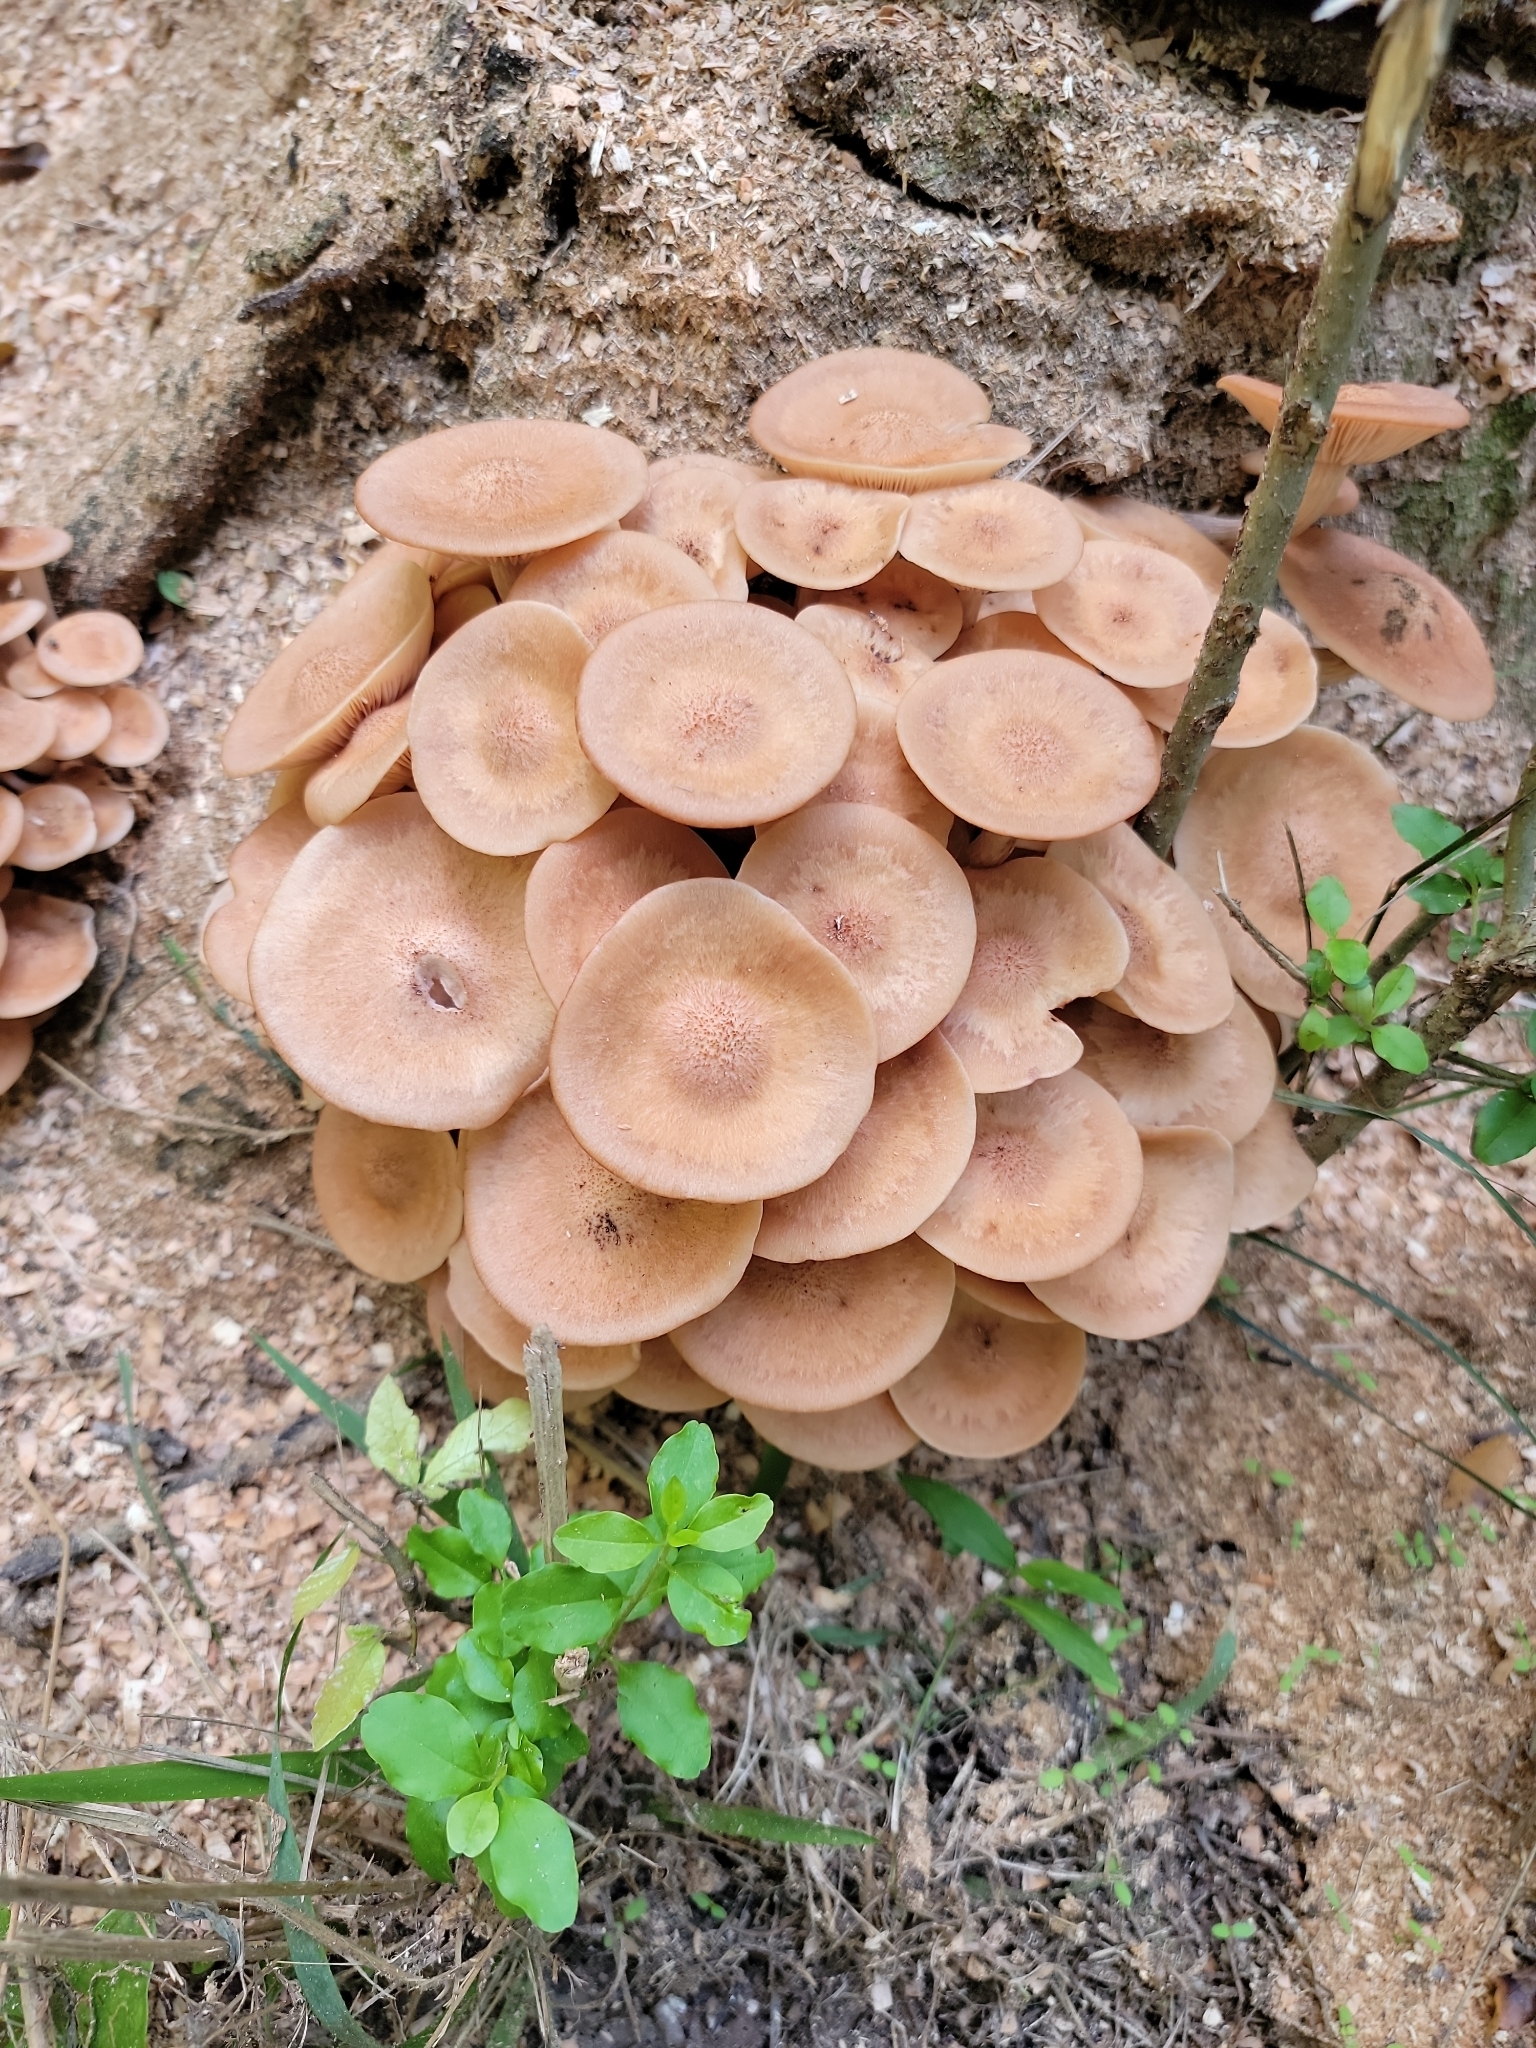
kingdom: Fungi
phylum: Basidiomycota
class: Agaricomycetes
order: Agaricales
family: Physalacriaceae
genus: Desarmillaria
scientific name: Desarmillaria caespitosa
